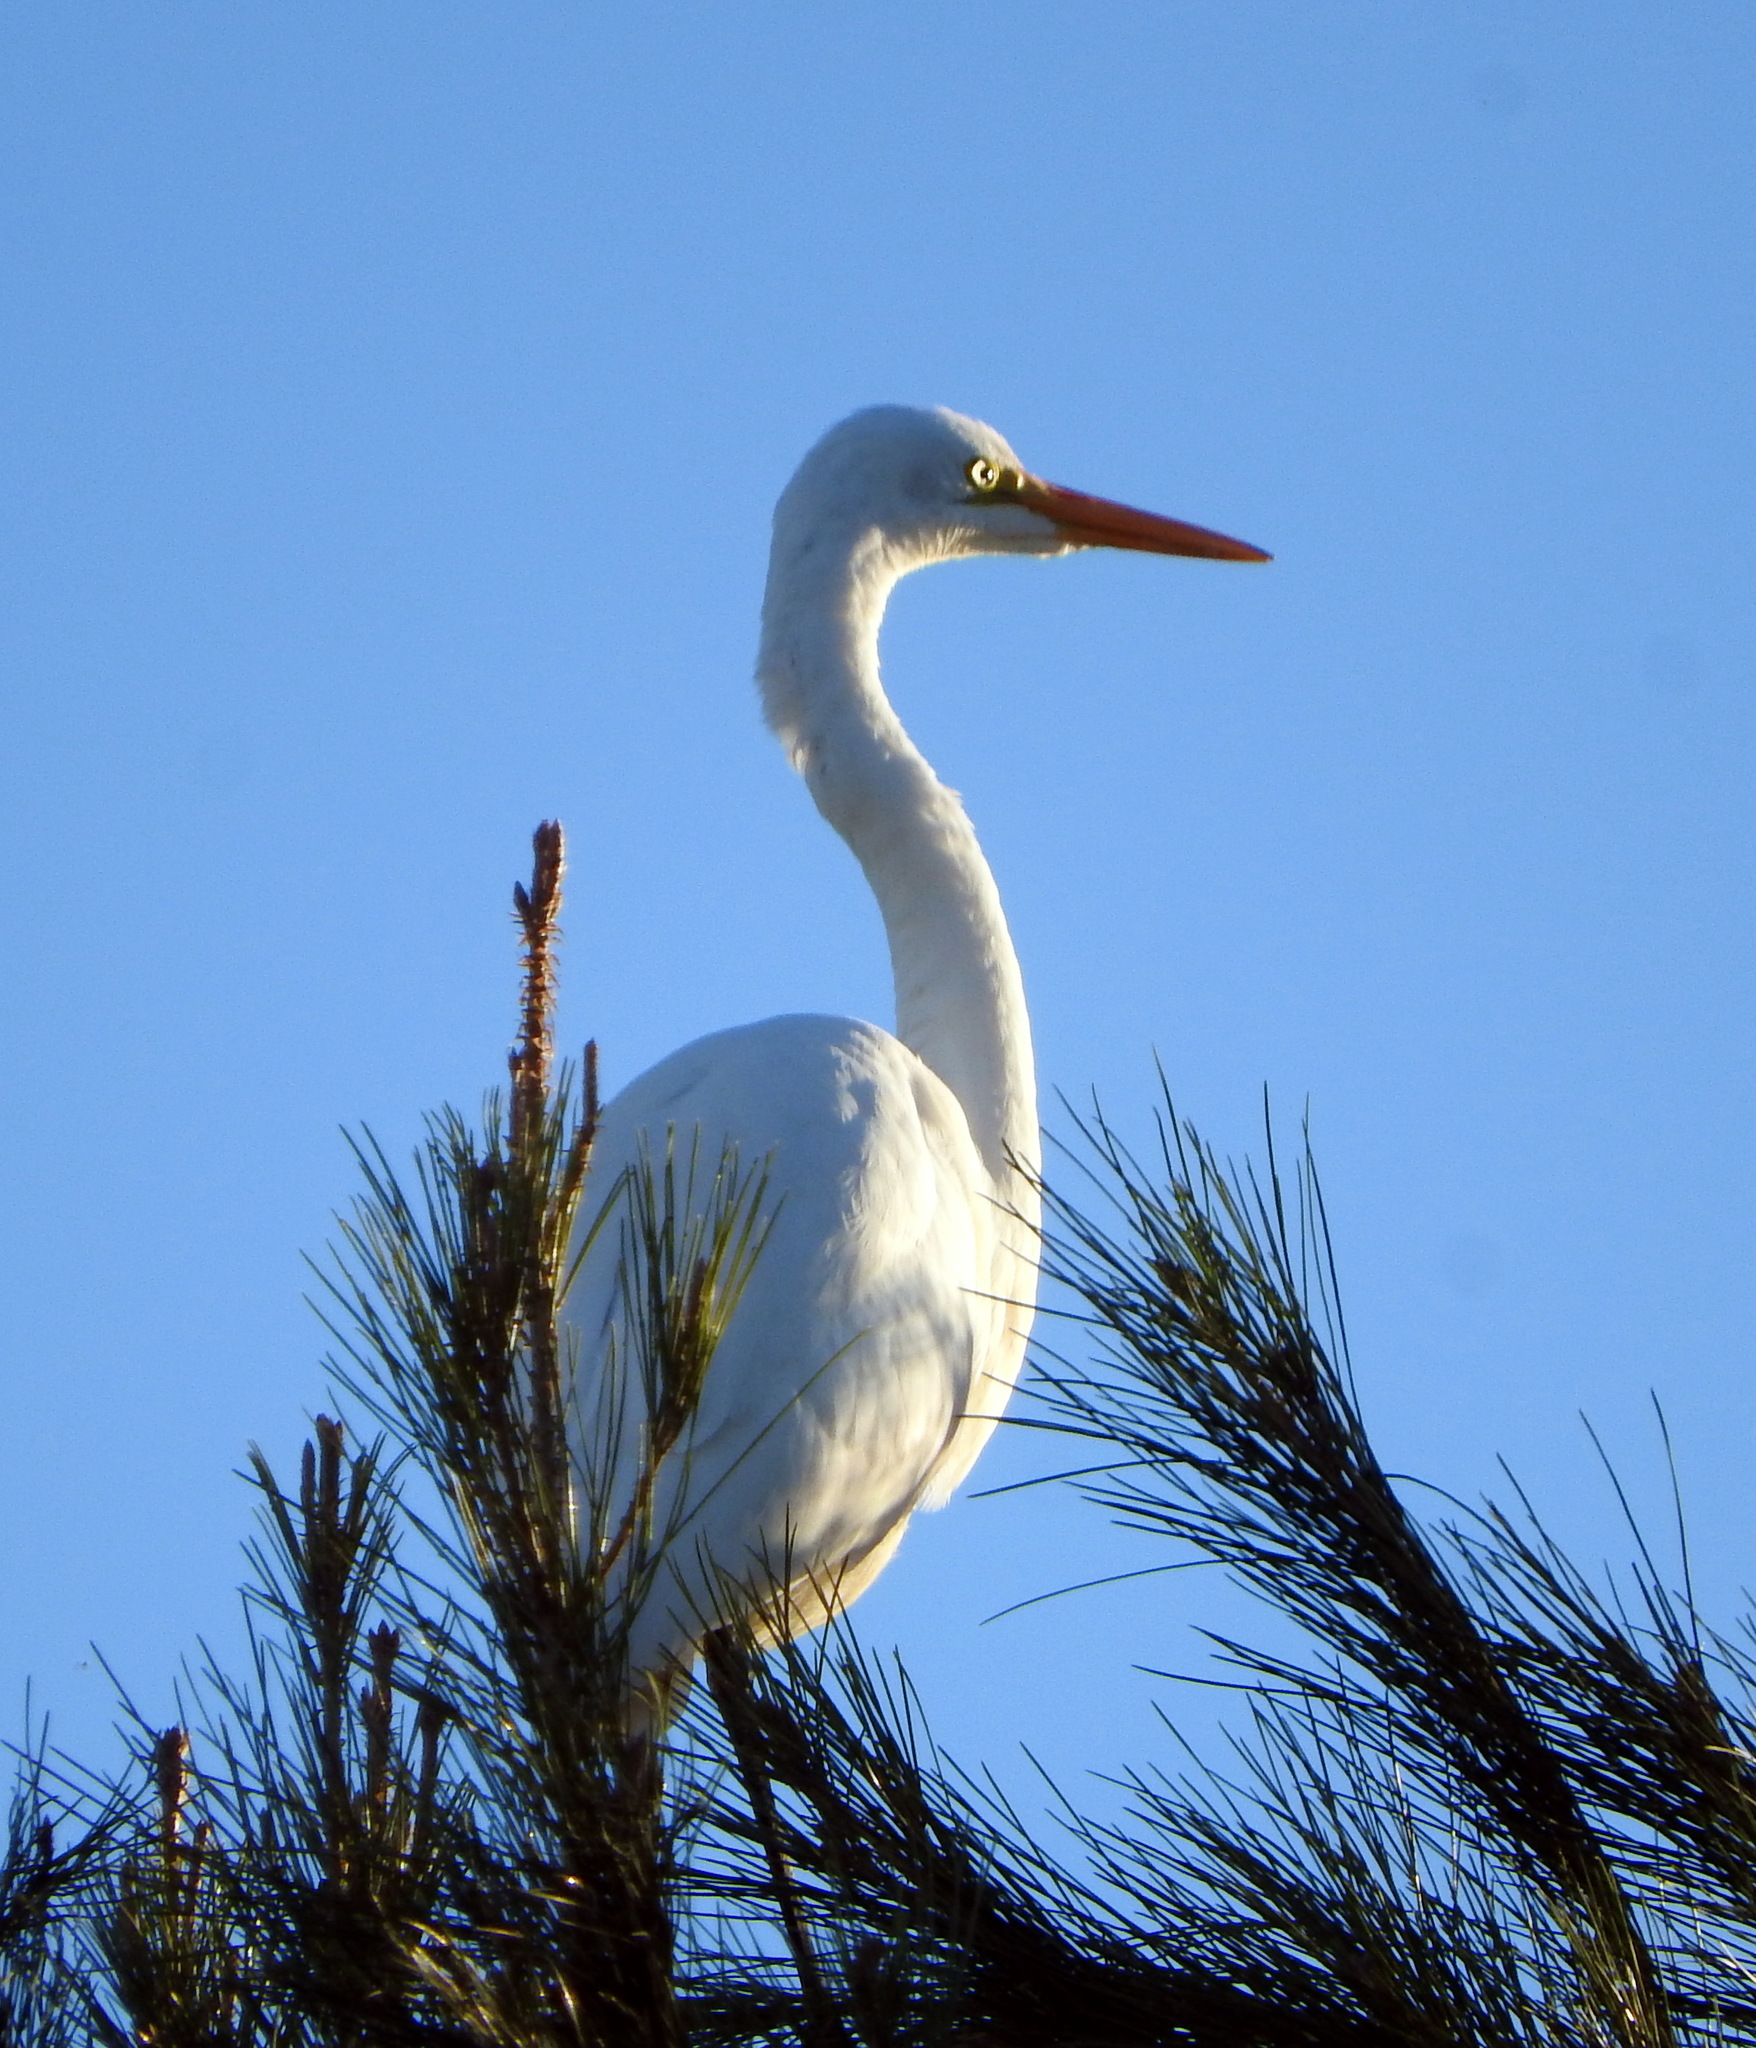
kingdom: Animalia
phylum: Chordata
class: Aves
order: Pelecaniformes
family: Ardeidae
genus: Ardea
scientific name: Ardea alba
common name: Great egret
